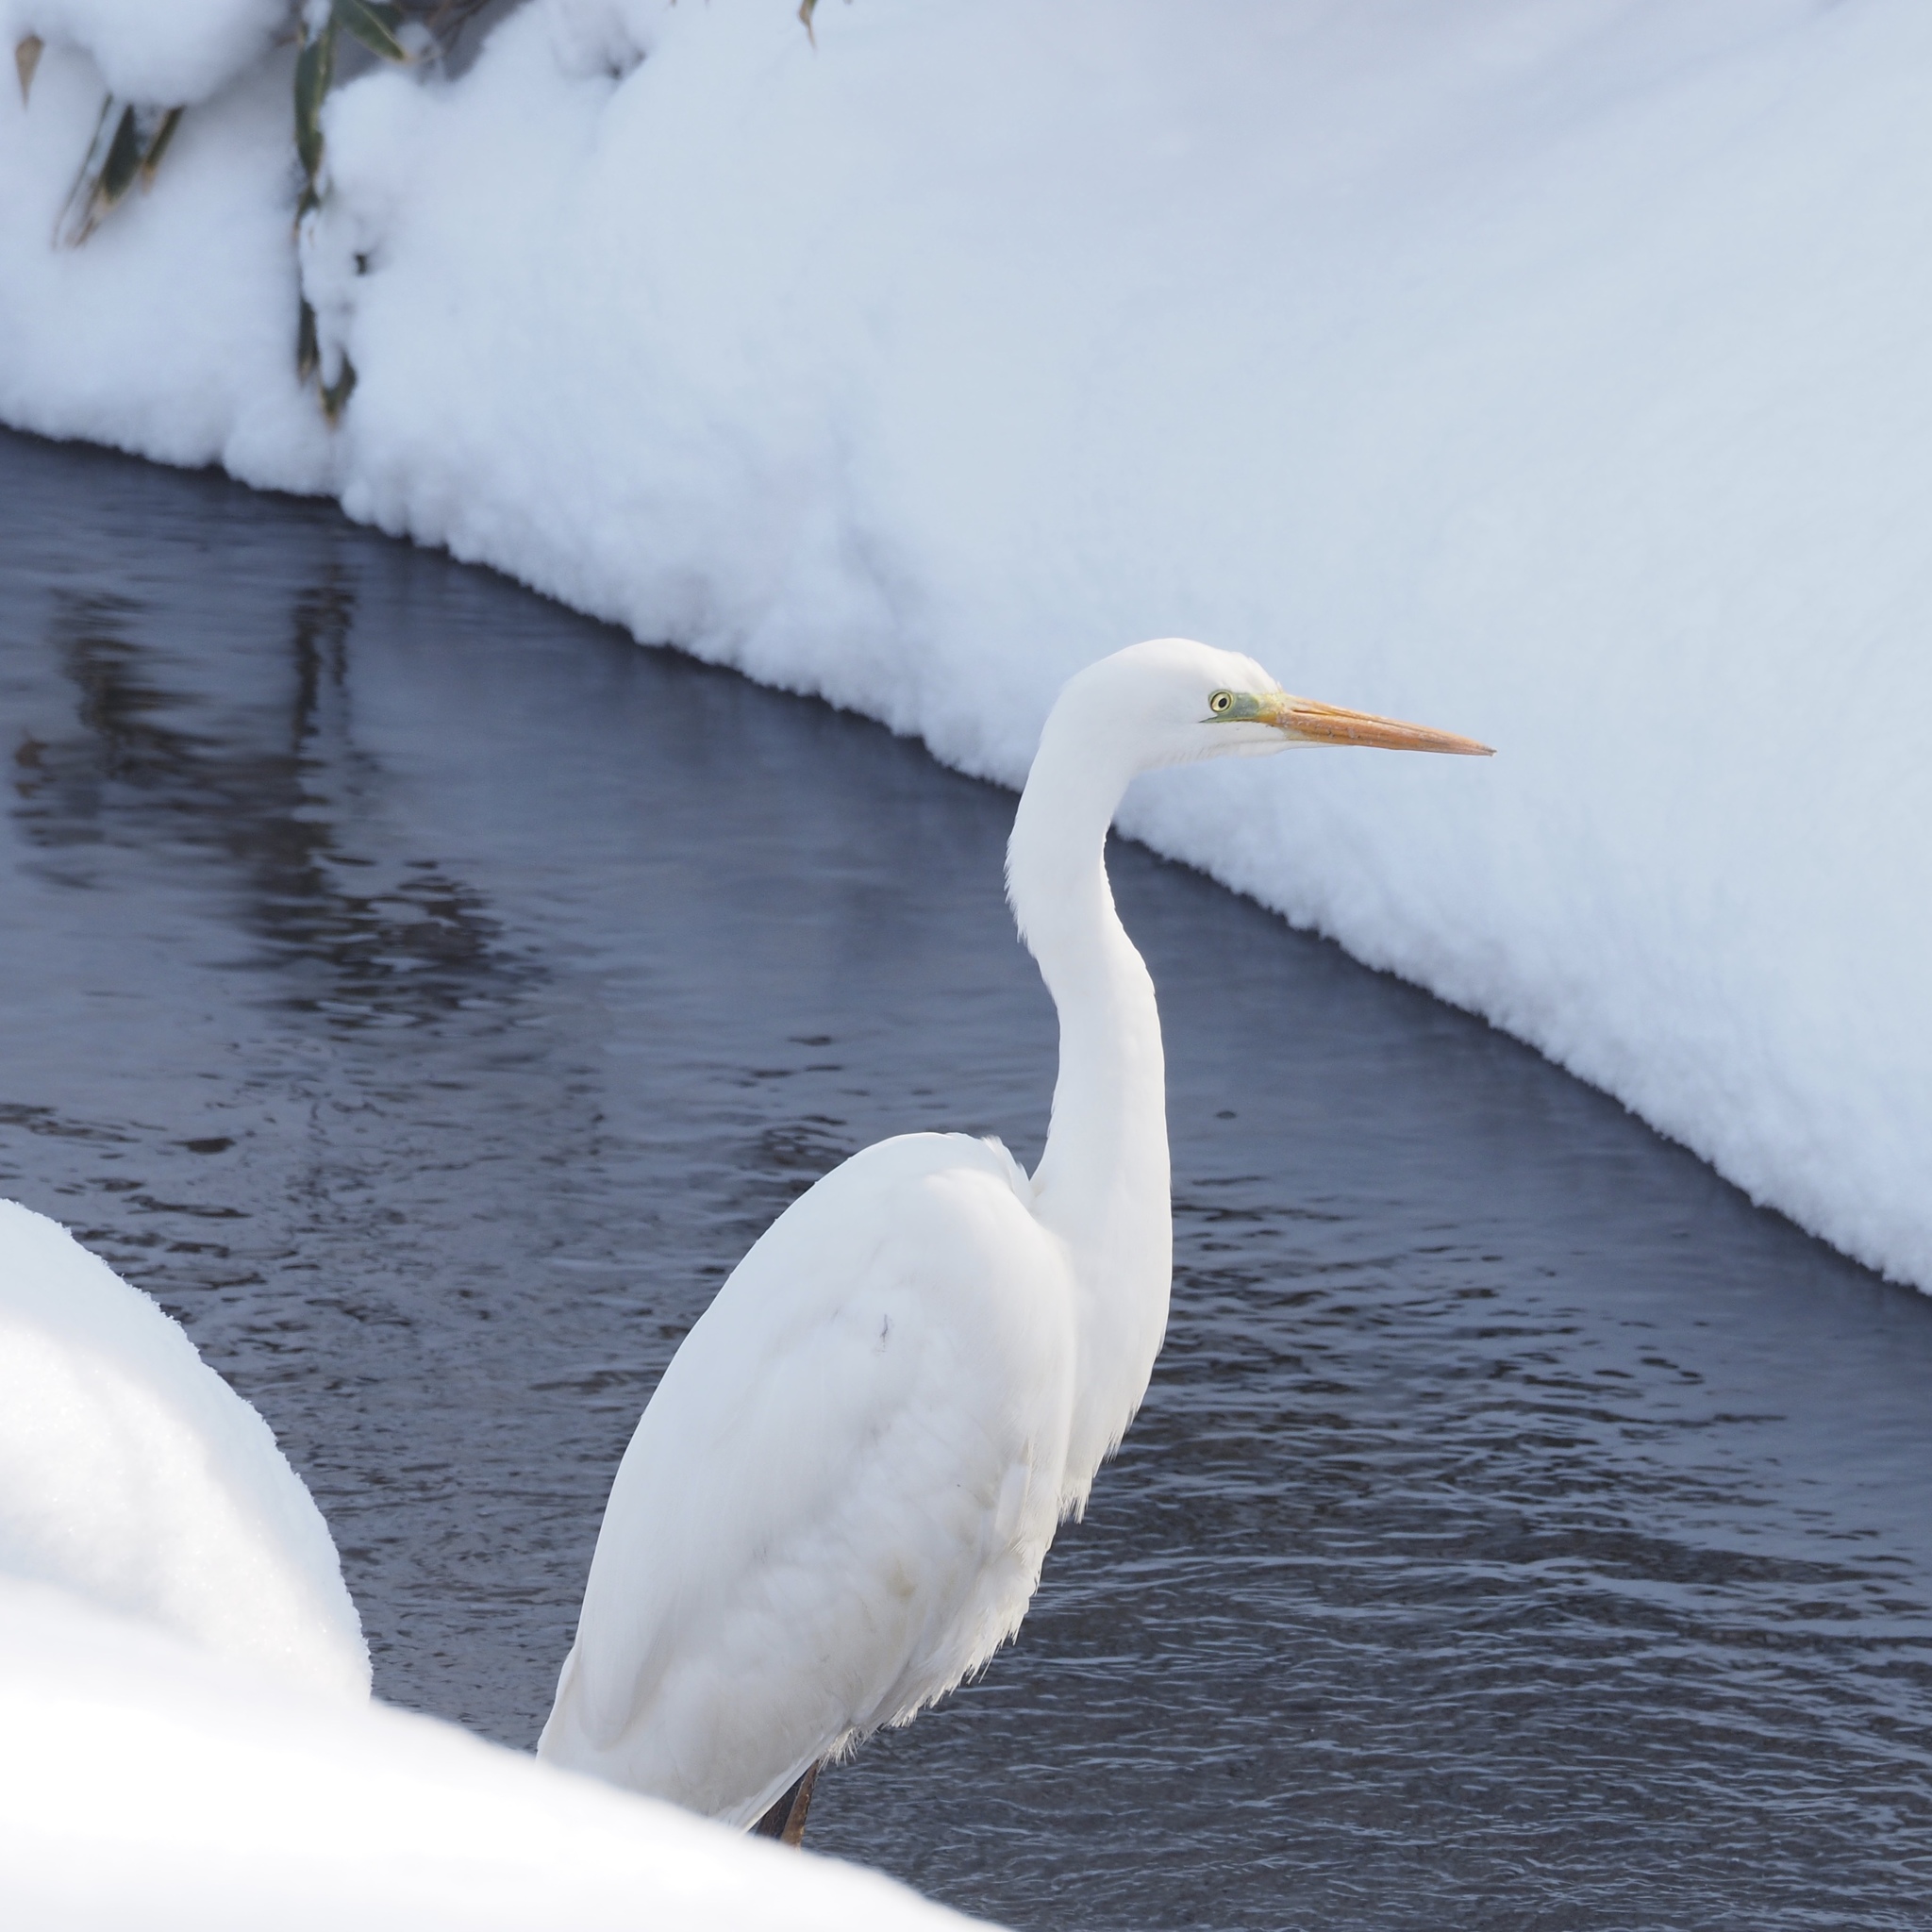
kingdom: Animalia
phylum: Chordata
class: Aves
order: Pelecaniformes
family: Ardeidae
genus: Ardea
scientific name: Ardea alba
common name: Great egret
